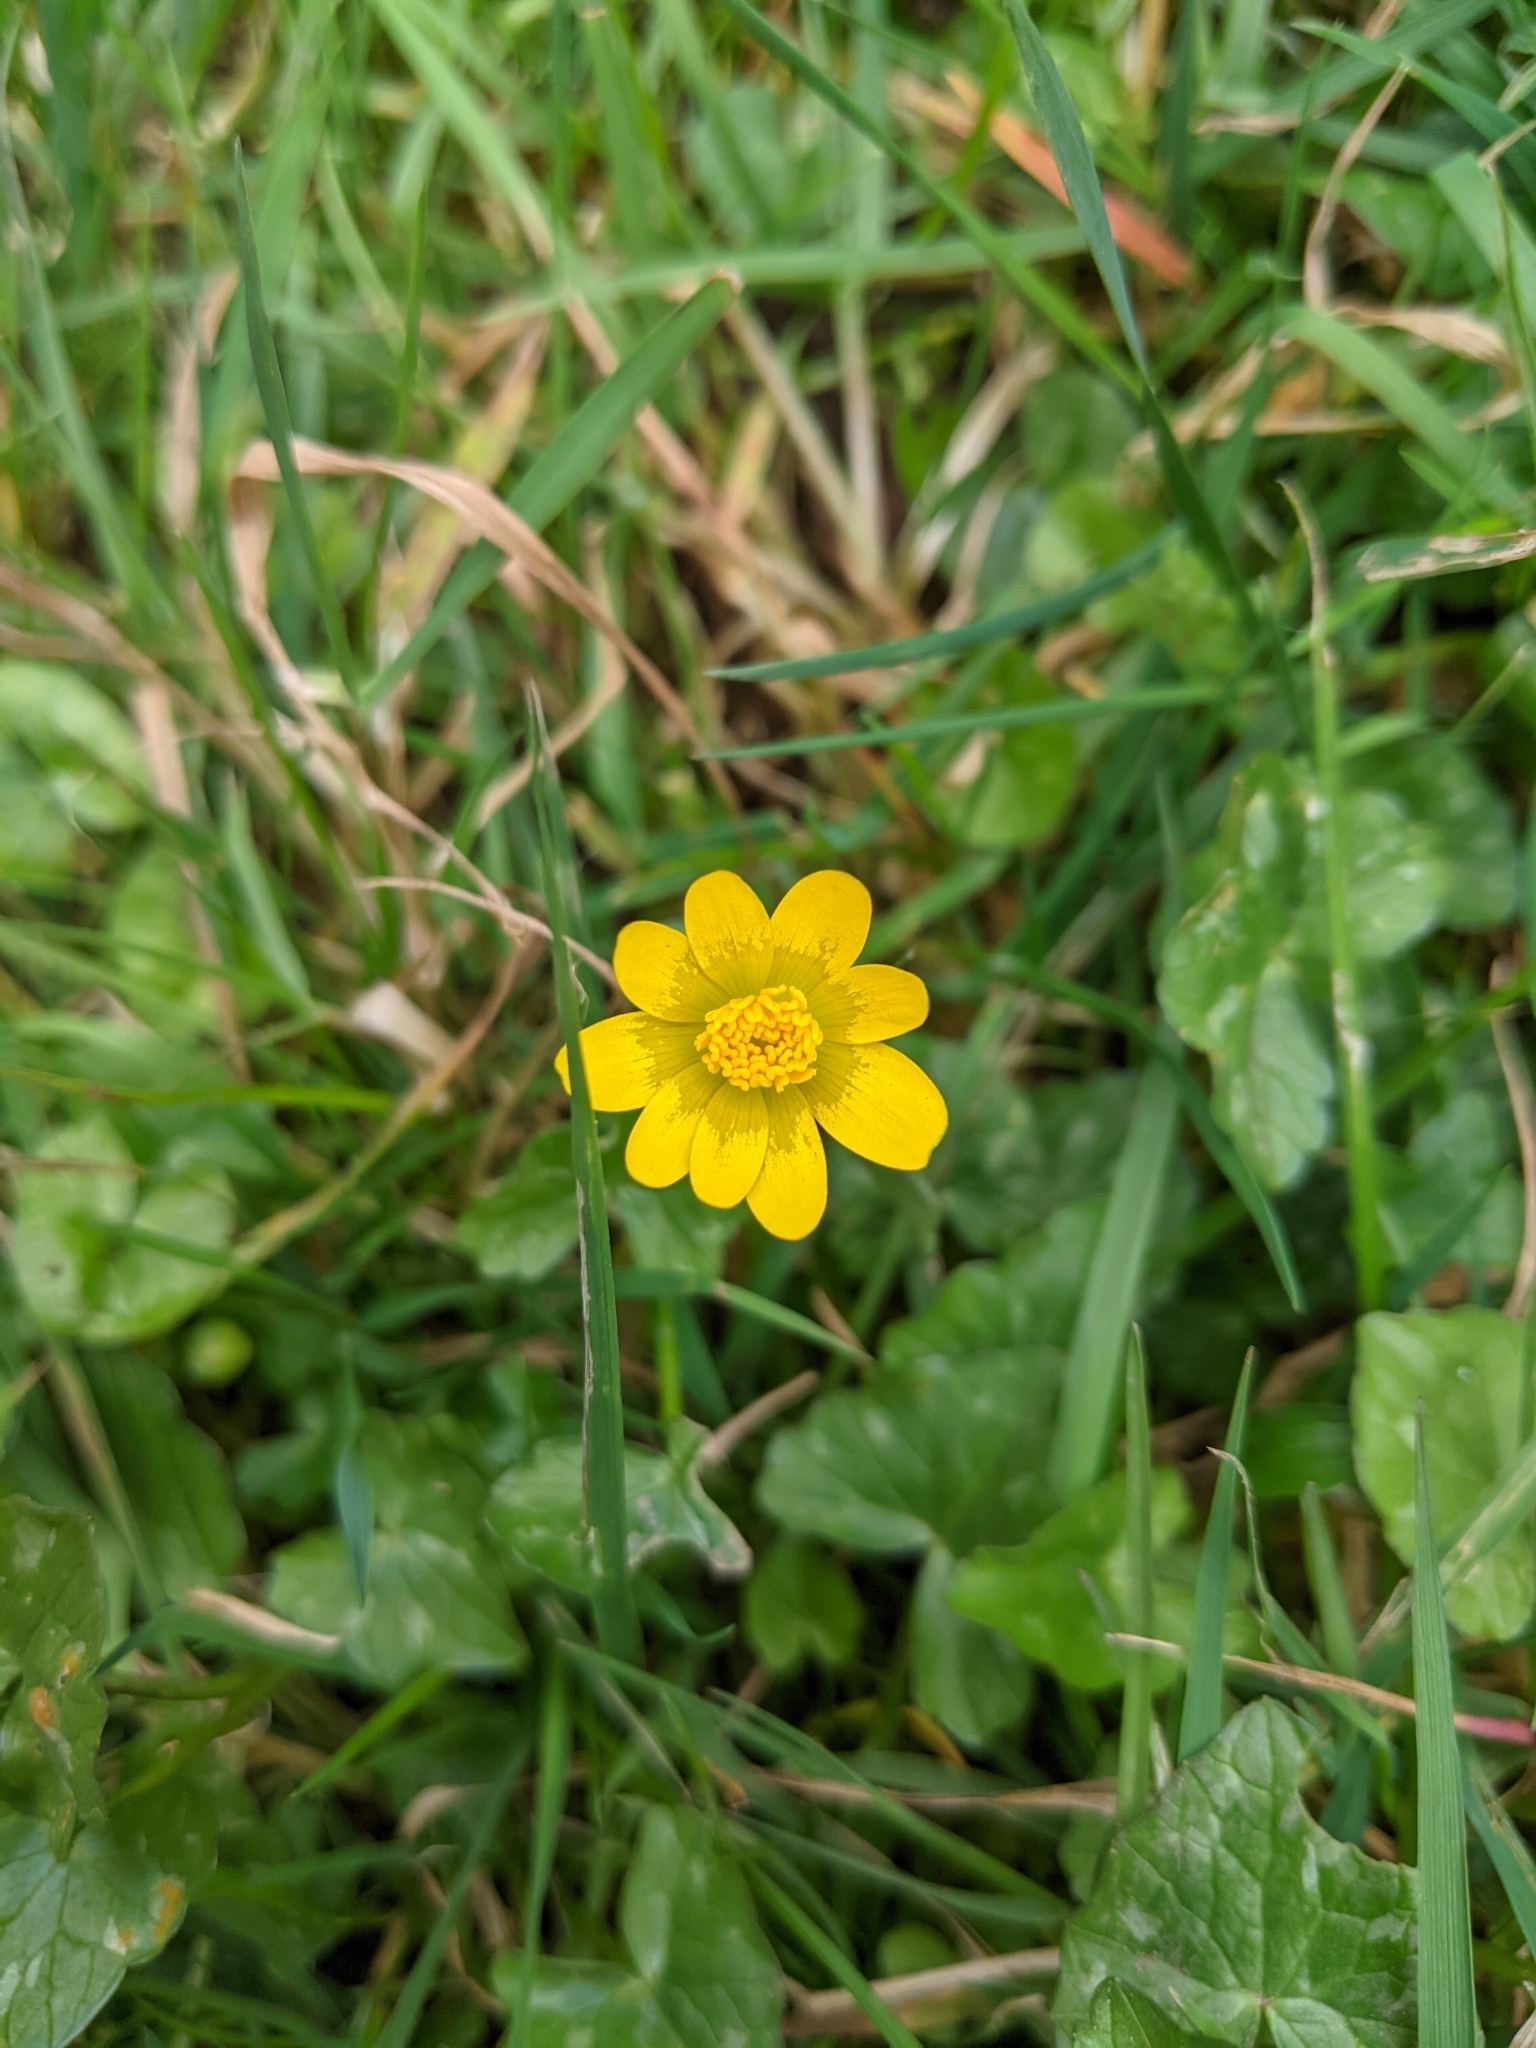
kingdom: Plantae
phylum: Tracheophyta
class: Magnoliopsida
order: Ranunculales
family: Ranunculaceae
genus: Ficaria
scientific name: Ficaria verna
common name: Lesser celandine
